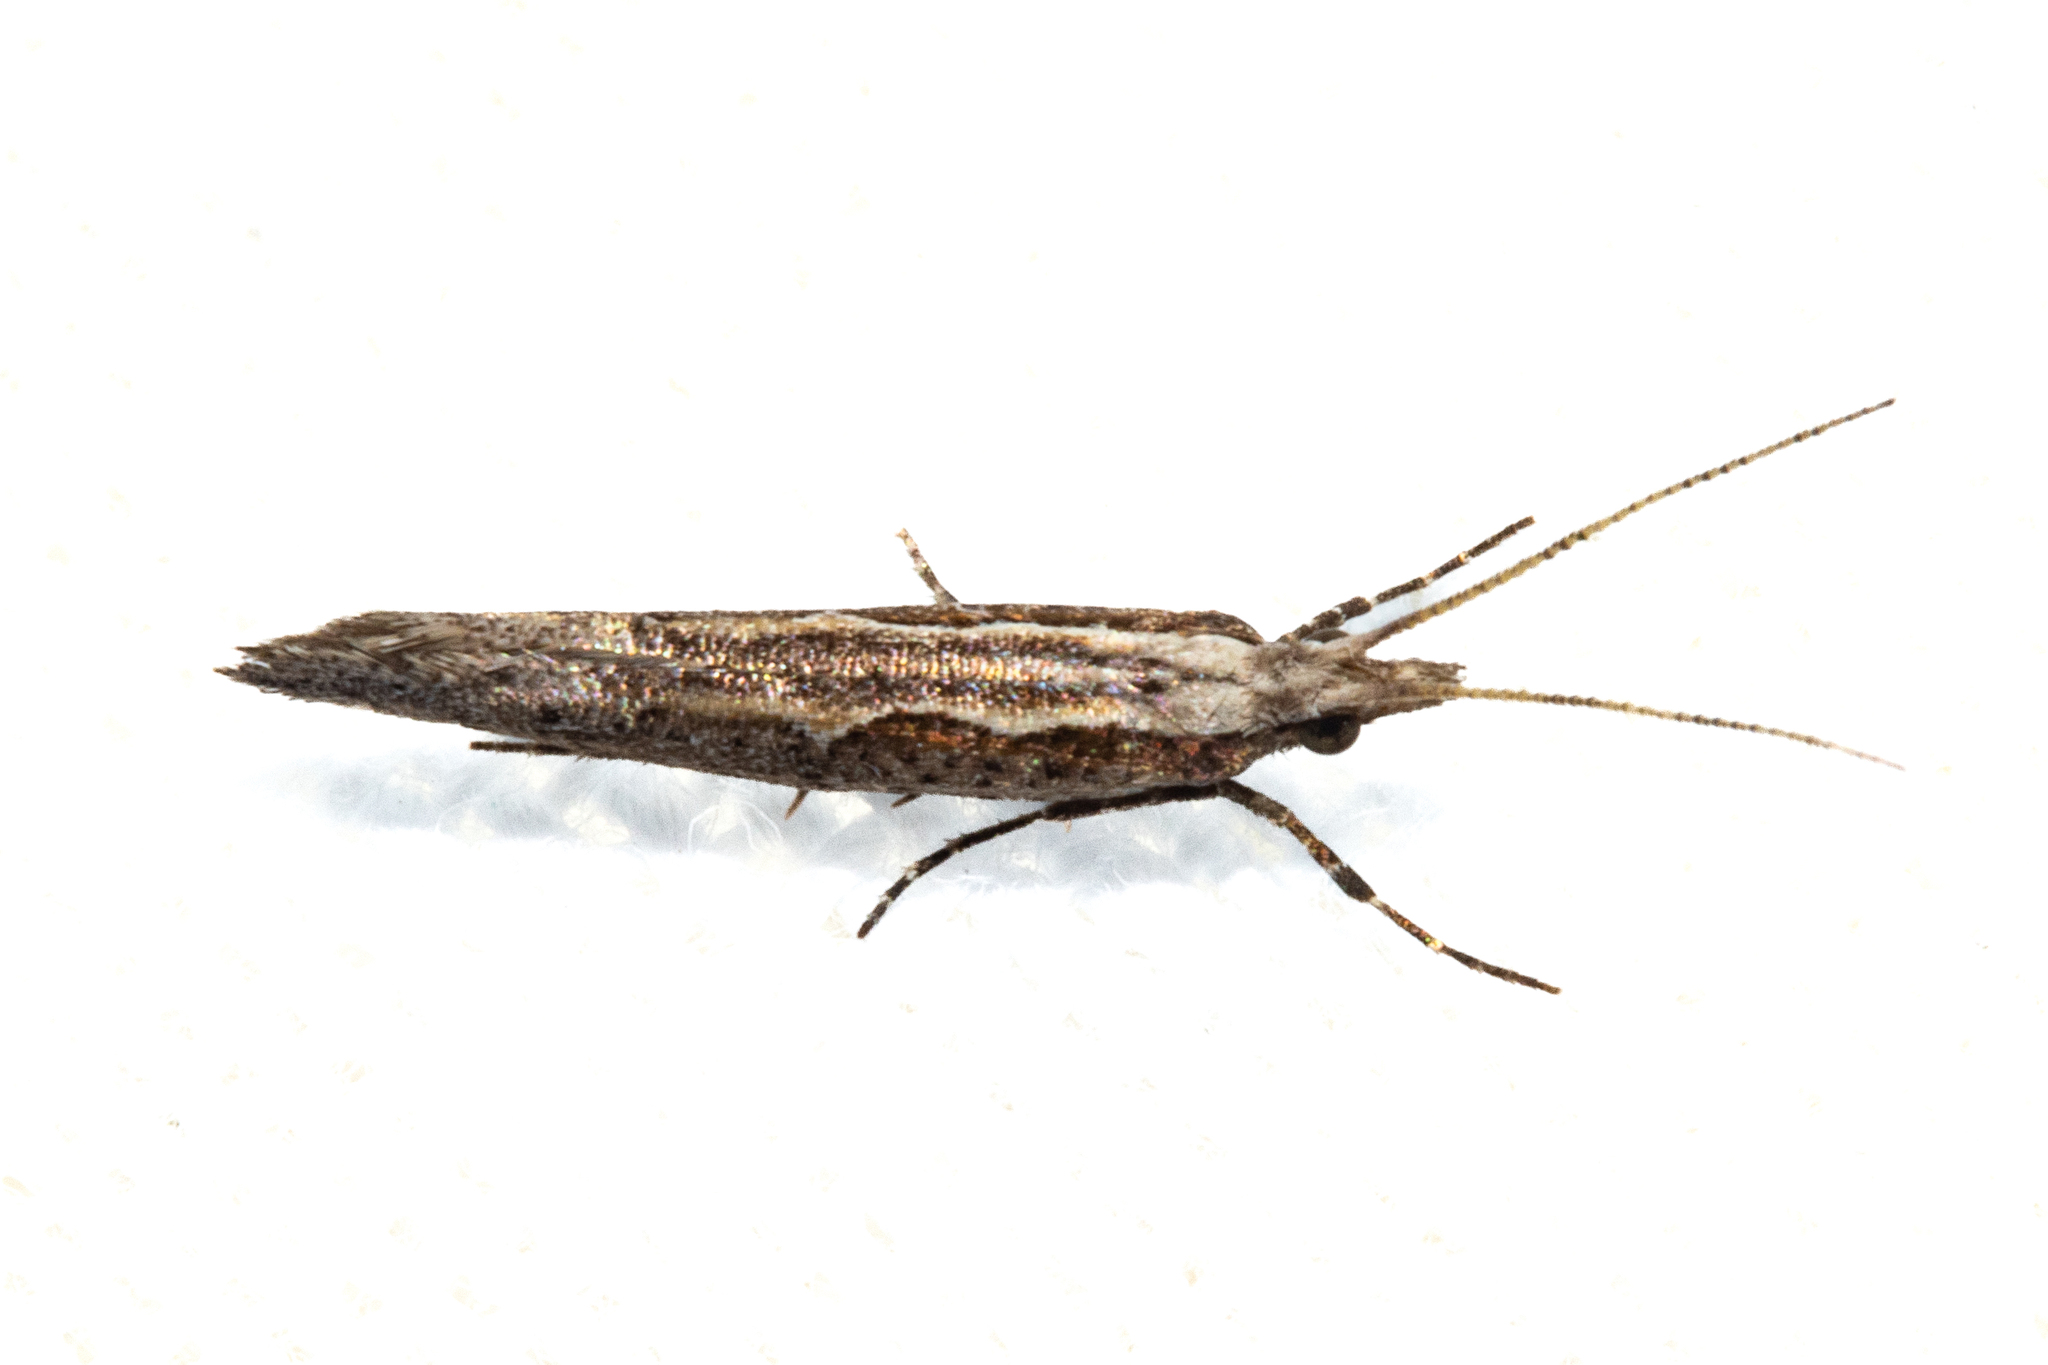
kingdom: Animalia
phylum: Arthropoda
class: Insecta
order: Lepidoptera
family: Plutellidae
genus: Plutella
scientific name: Plutella xylostella
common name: Diamond-back moth
